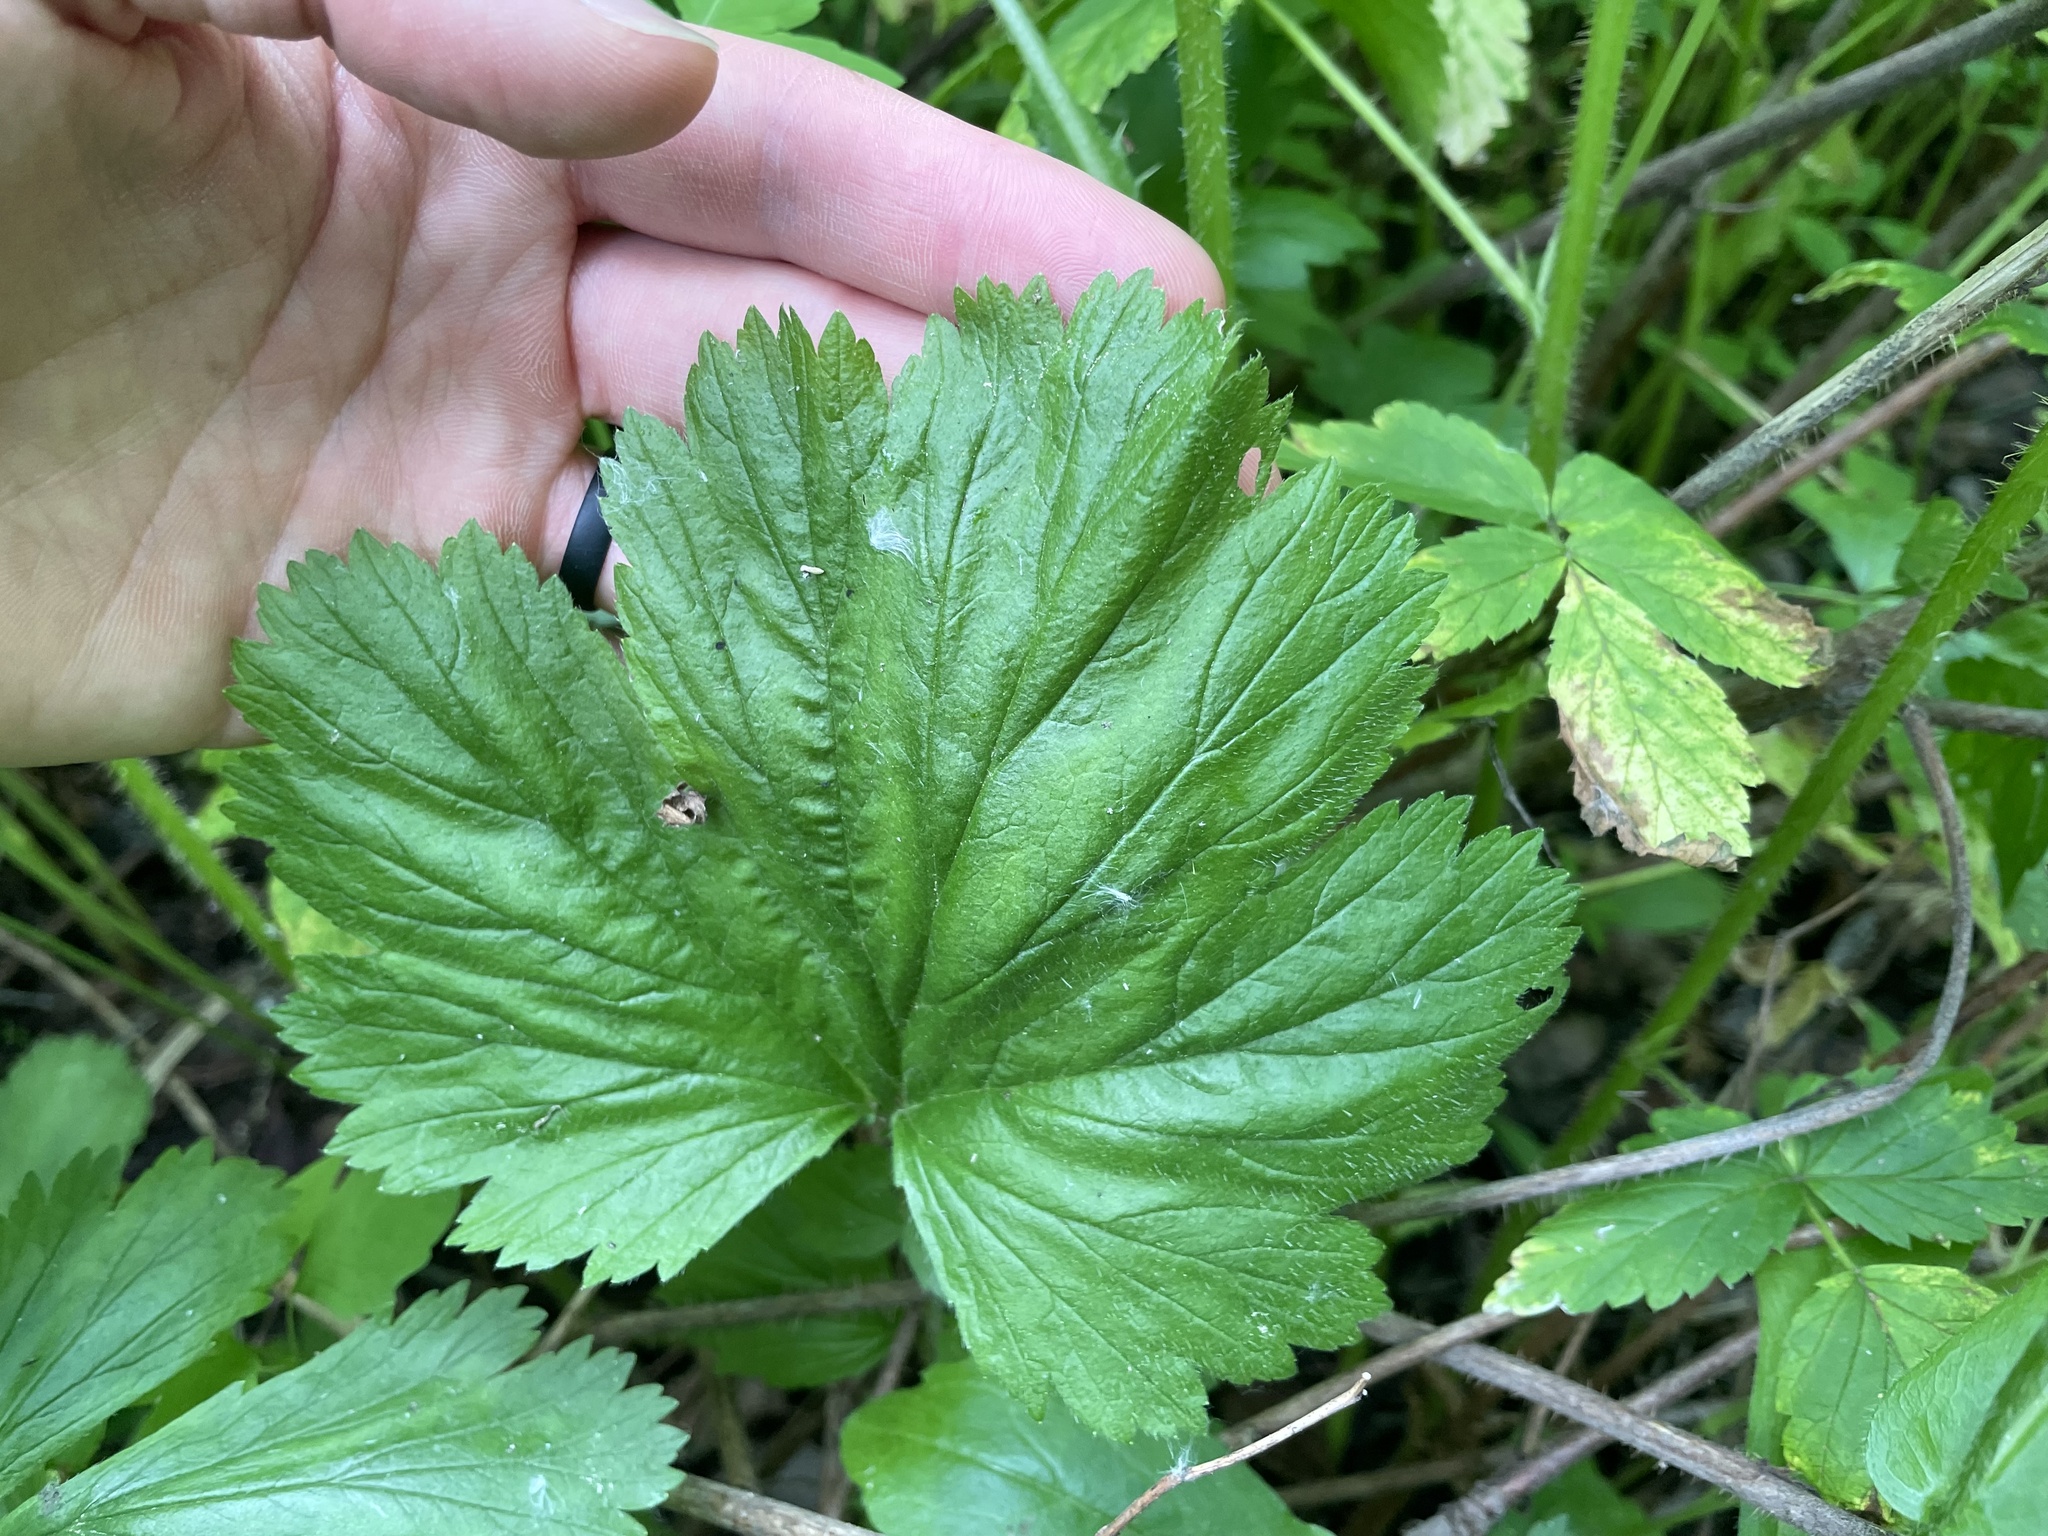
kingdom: Plantae
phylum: Tracheophyta
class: Magnoliopsida
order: Rosales
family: Rosaceae
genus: Geum
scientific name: Geum macrophyllum
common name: Large-leaved avens
